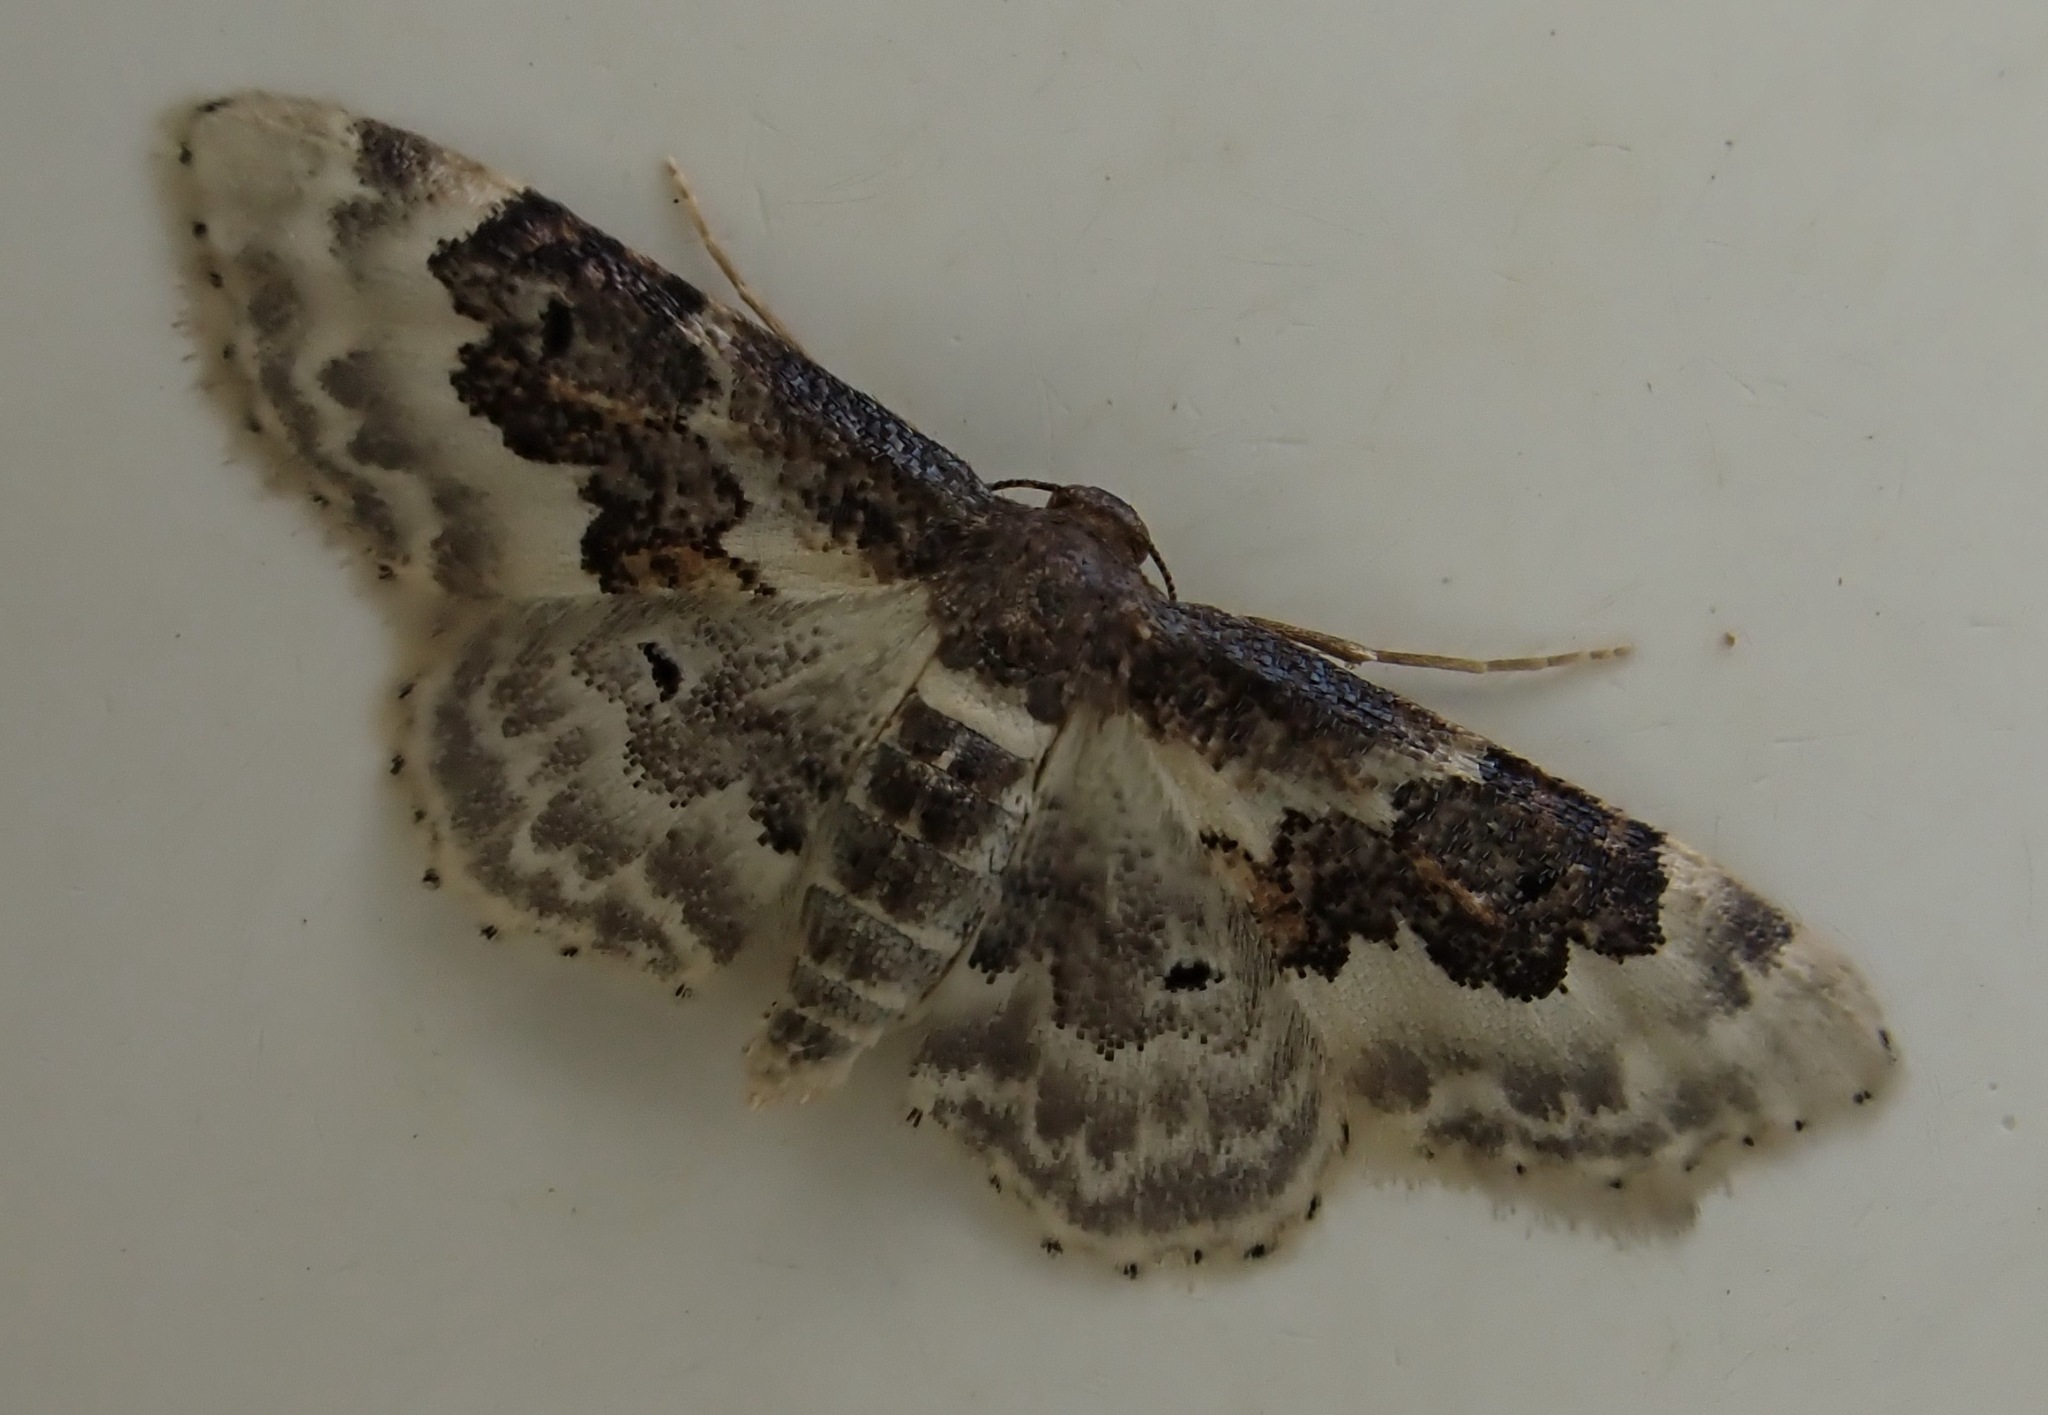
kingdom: Animalia
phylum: Arthropoda
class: Insecta
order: Lepidoptera
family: Geometridae
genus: Idaea
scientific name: Idaea rusticata
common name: Least carpet
